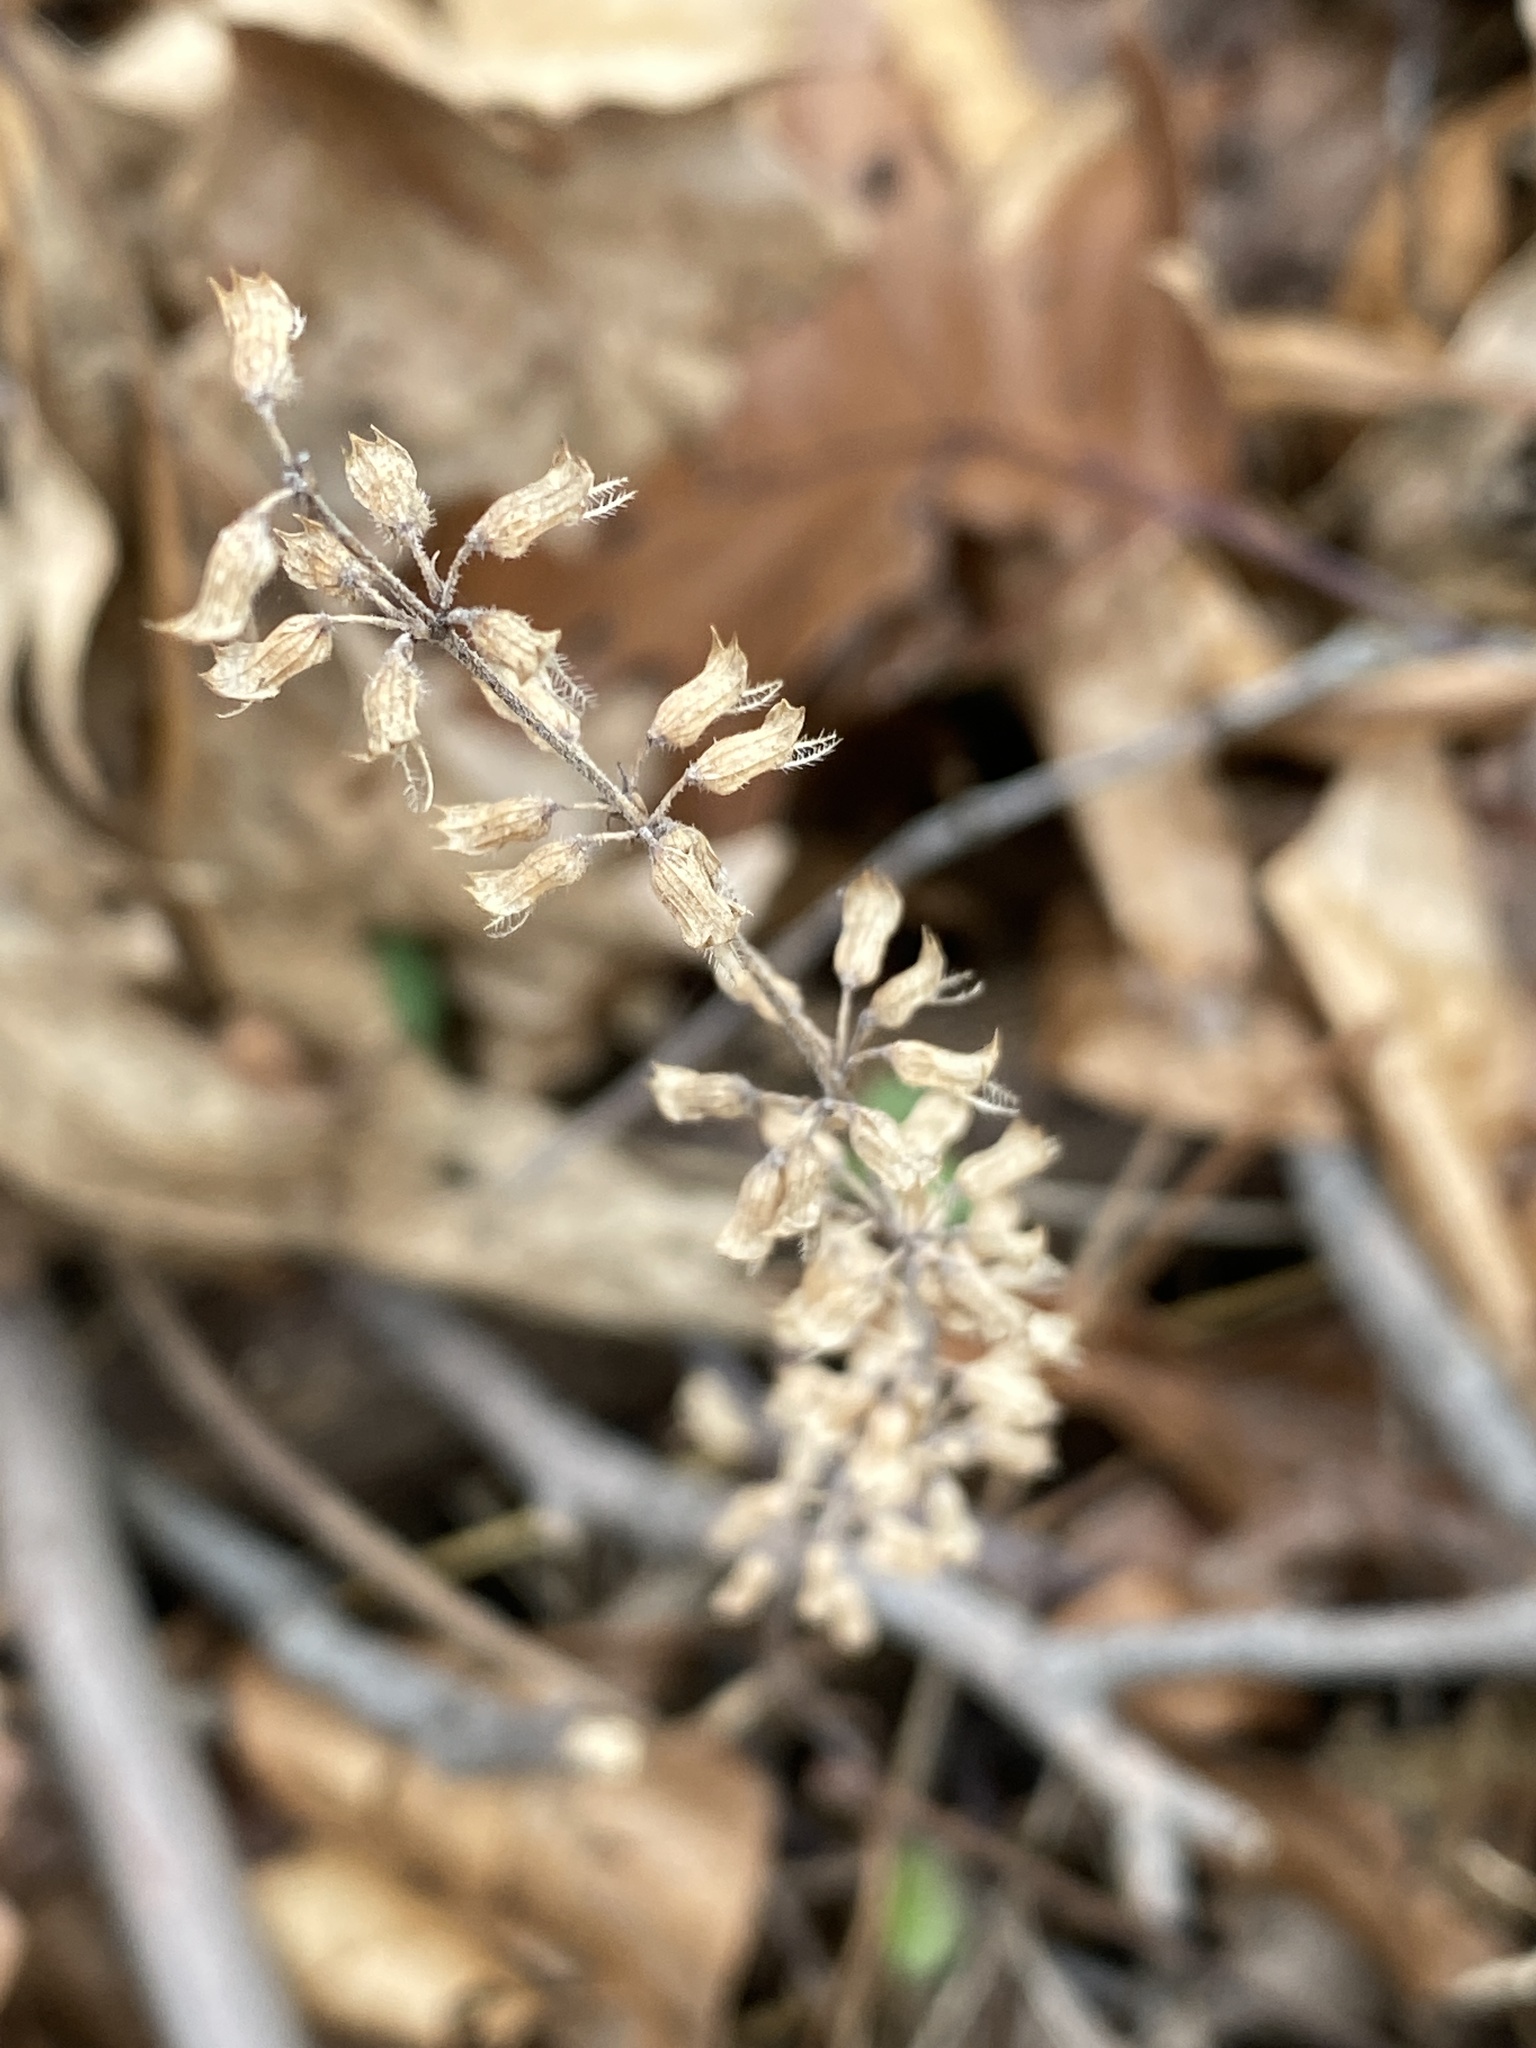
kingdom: Plantae
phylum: Tracheophyta
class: Magnoliopsida
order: Lamiales
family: Lamiaceae
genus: Hedeoma
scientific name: Hedeoma pulegioides
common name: American false pennyroyal
